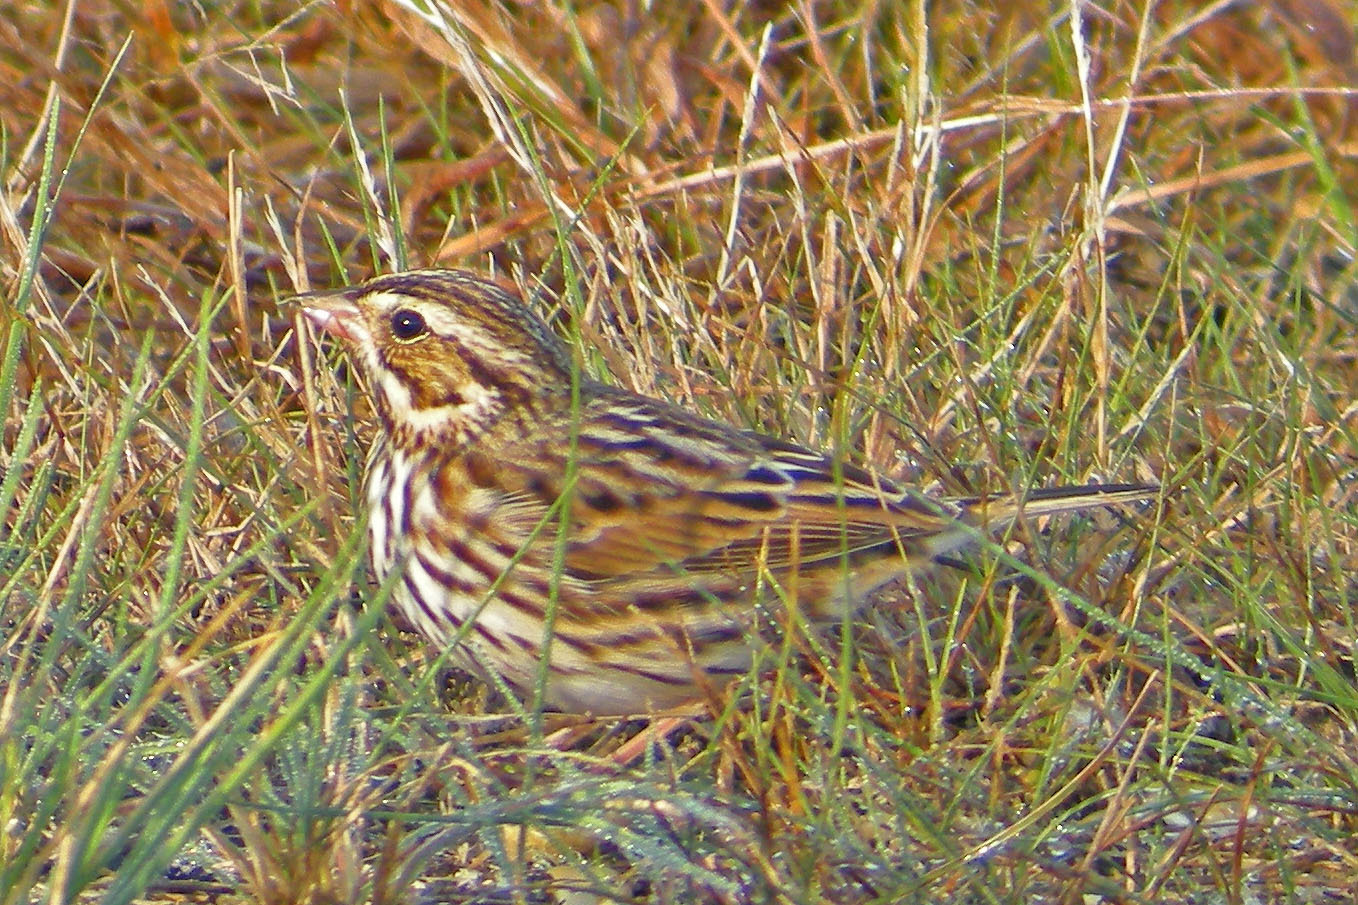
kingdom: Animalia
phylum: Chordata
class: Aves
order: Passeriformes
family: Passerellidae
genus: Passerculus
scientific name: Passerculus sandwichensis
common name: Savannah sparrow
